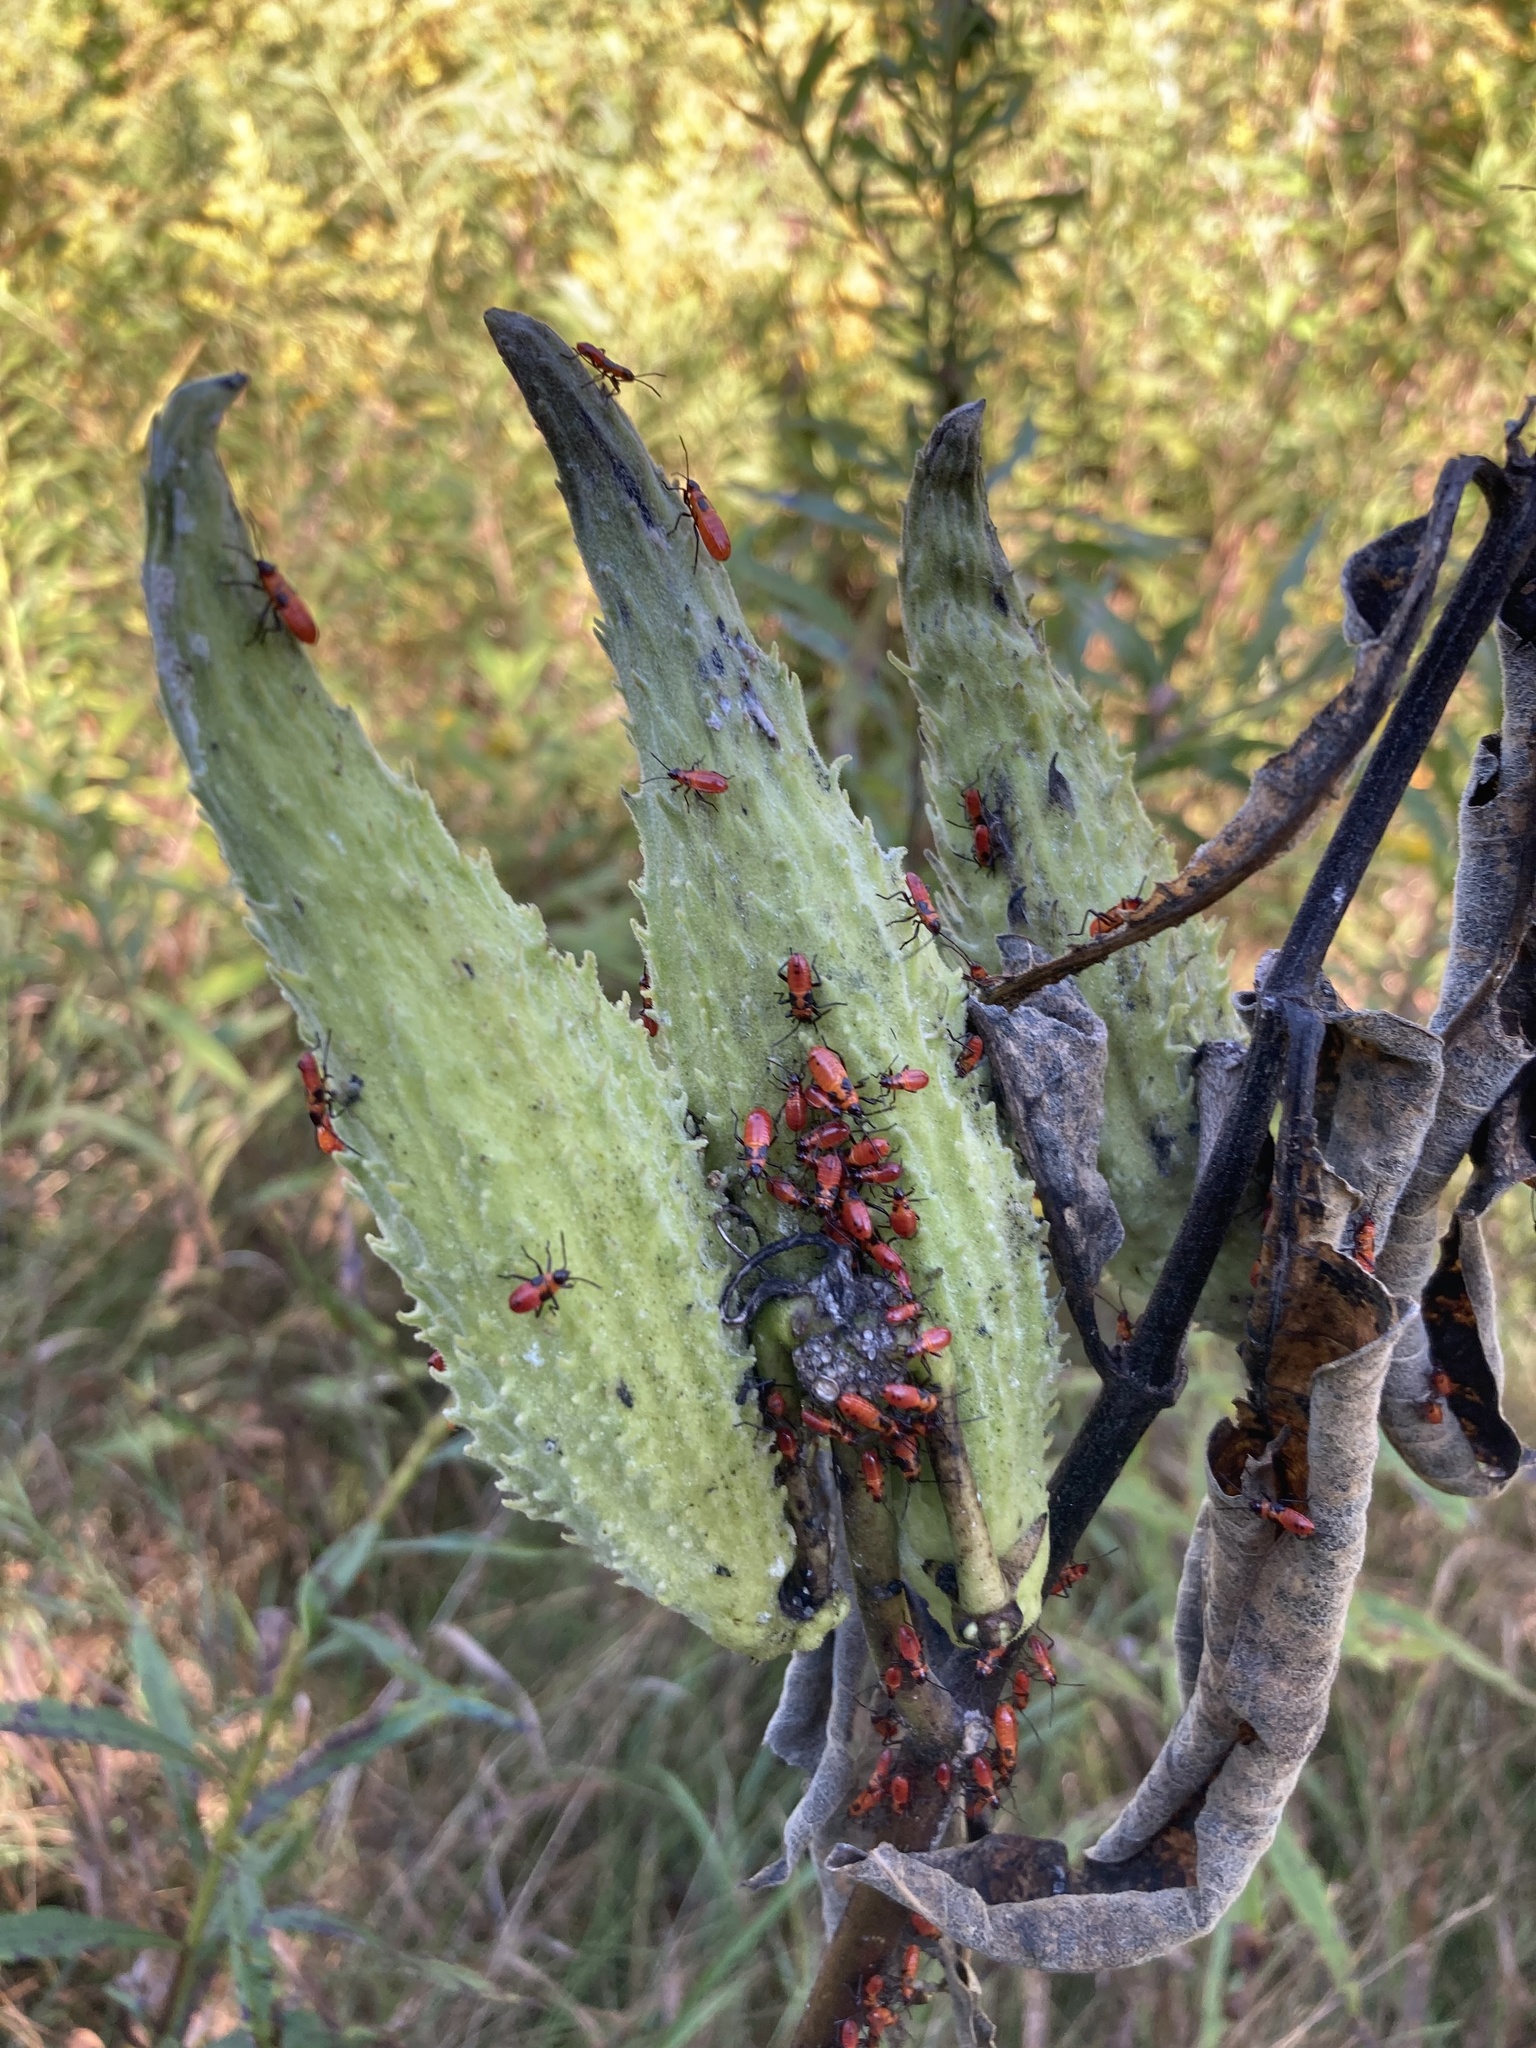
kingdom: Animalia
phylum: Arthropoda
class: Insecta
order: Hemiptera
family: Lygaeidae
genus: Oncopeltus
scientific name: Oncopeltus fasciatus
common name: Large milkweed bug
